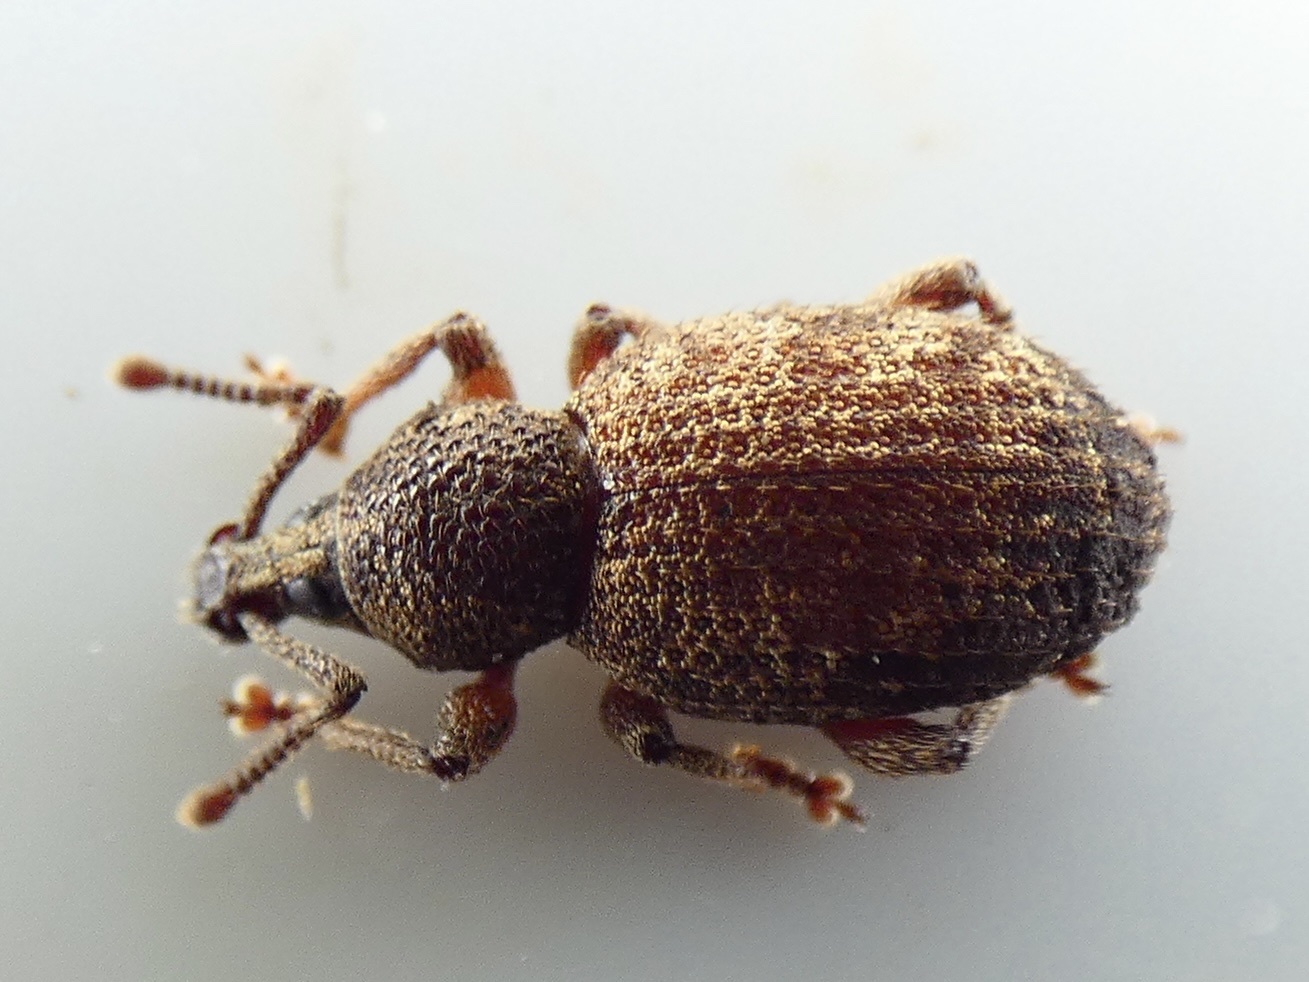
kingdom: Animalia
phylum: Arthropoda
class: Insecta
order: Coleoptera
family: Curculionidae
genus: Otiorhynchus
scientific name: Otiorhynchus singularis
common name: Clay-coloured weevil
